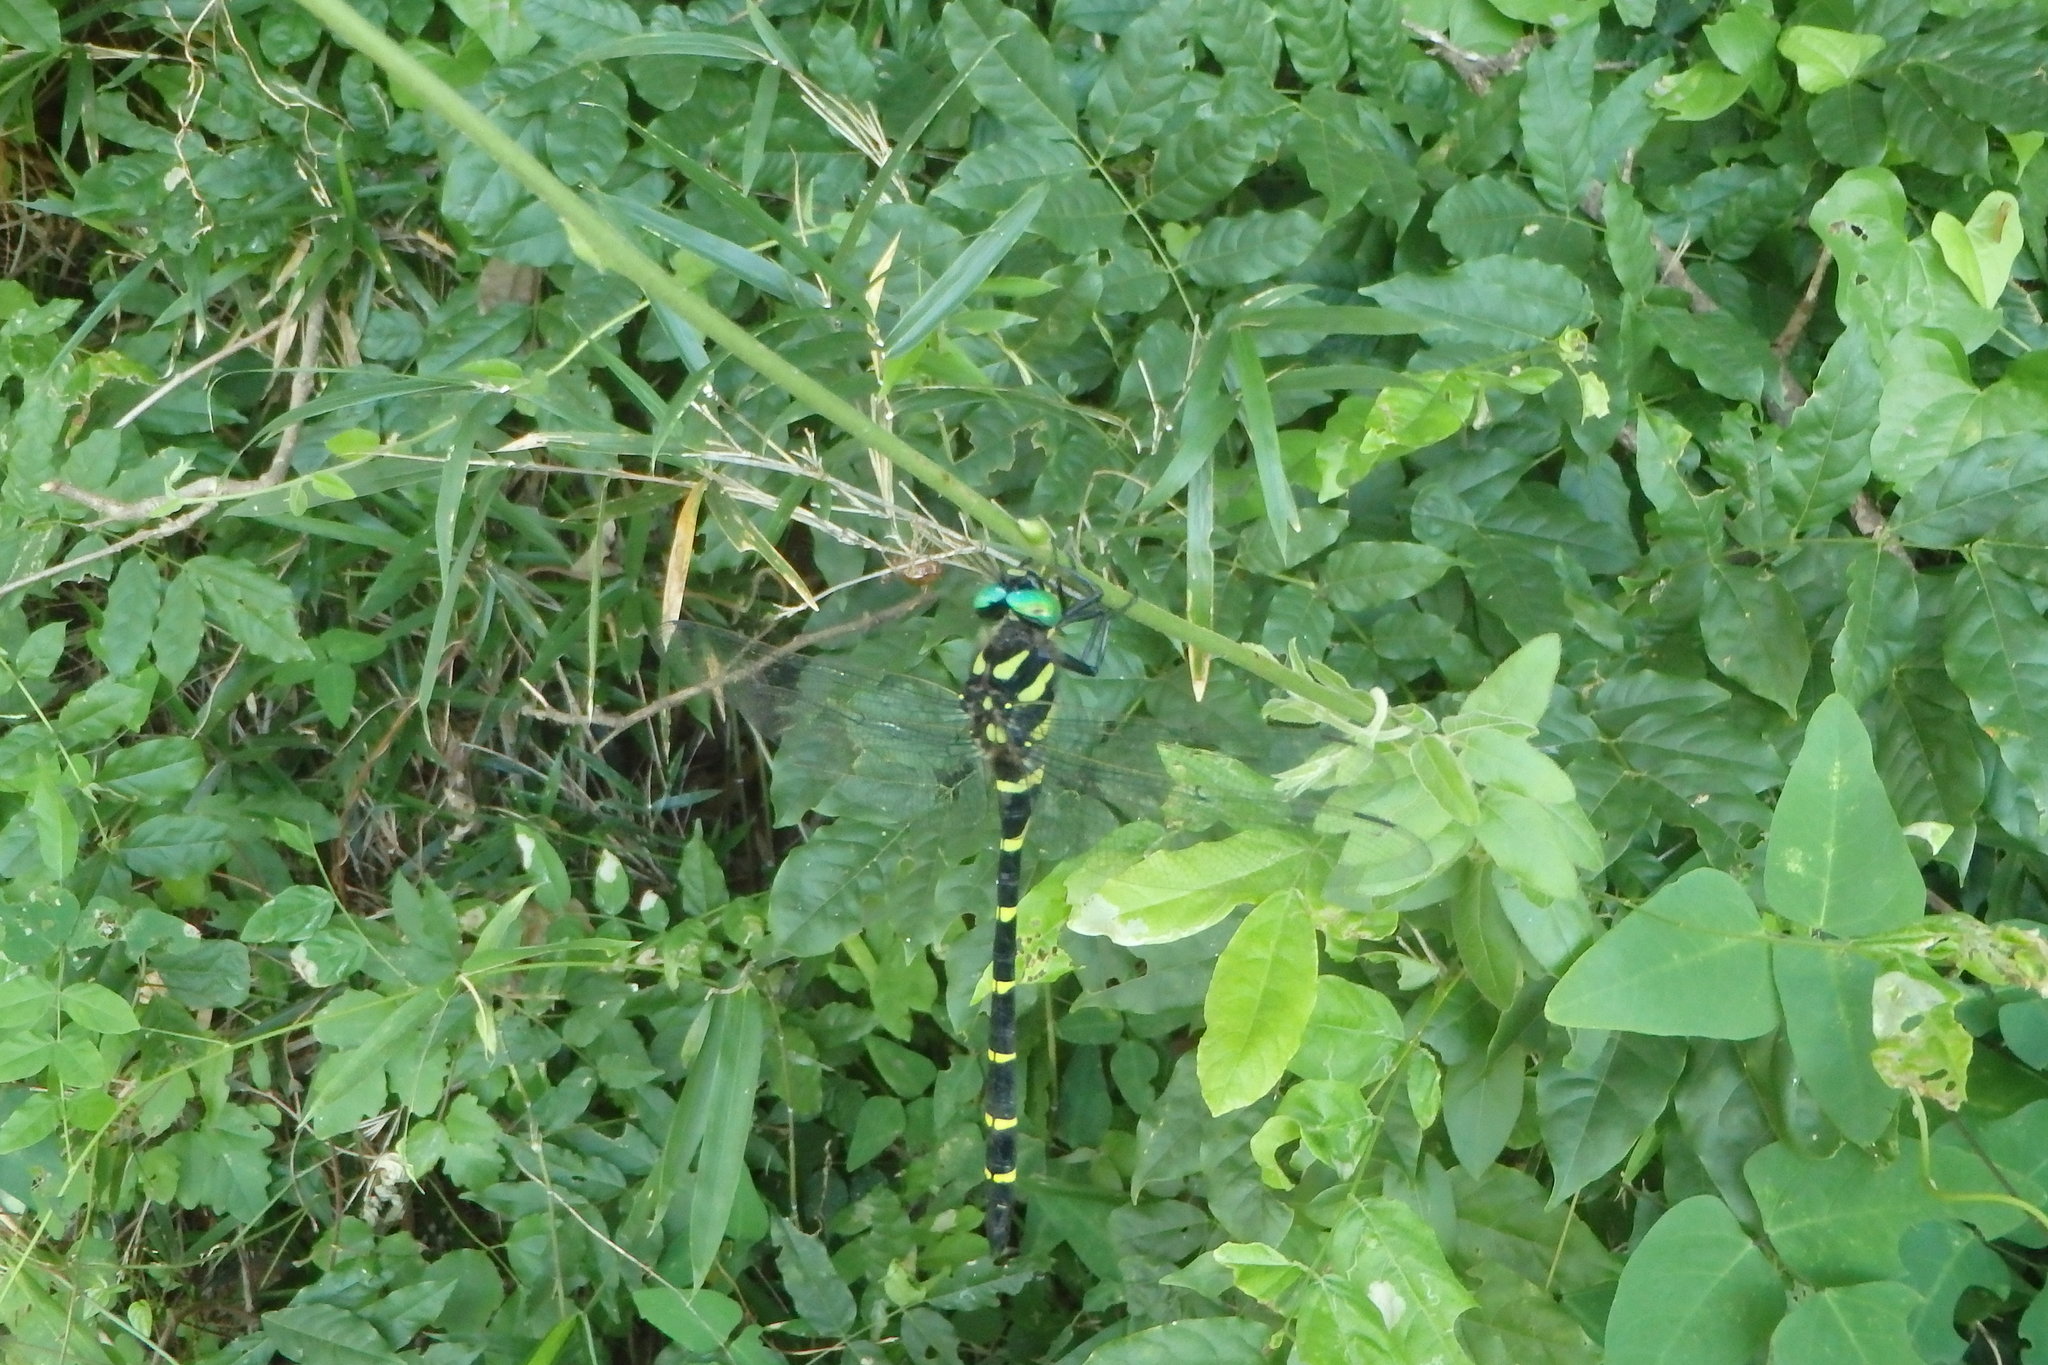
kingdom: Animalia
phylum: Arthropoda
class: Insecta
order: Odonata
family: Cordulegastridae
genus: Anotogaster
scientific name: Anotogaster sieboldii
